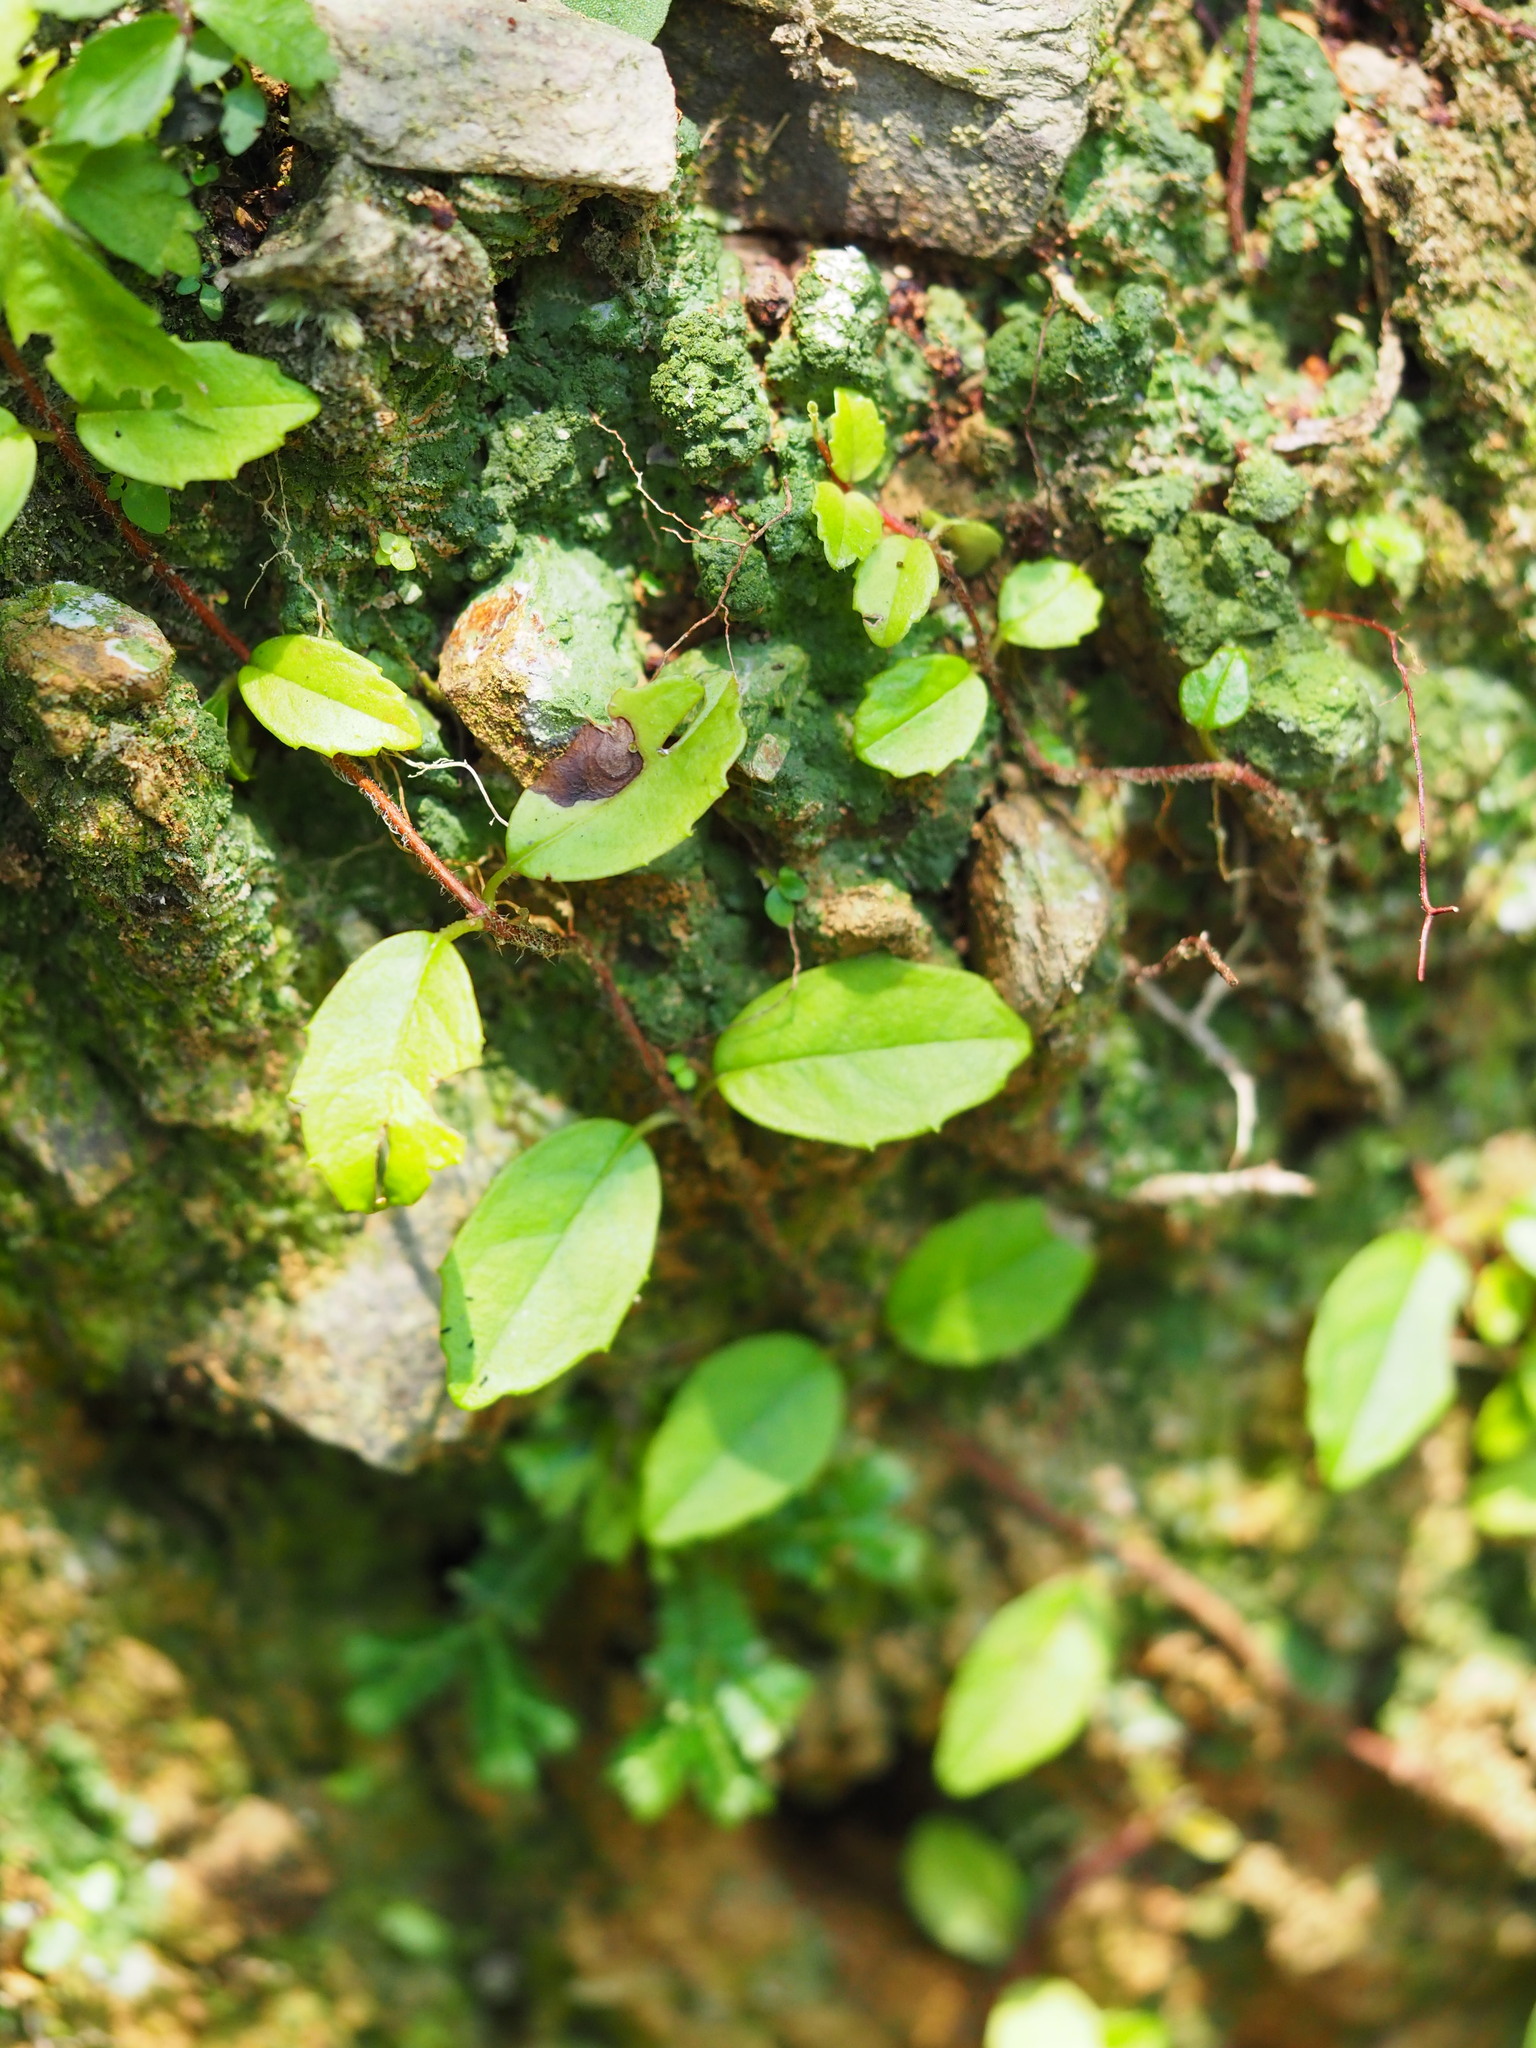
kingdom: Plantae
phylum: Tracheophyta
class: Magnoliopsida
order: Cornales
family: Hydrangeaceae
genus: Hydrangea
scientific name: Hydrangea viburnoides
